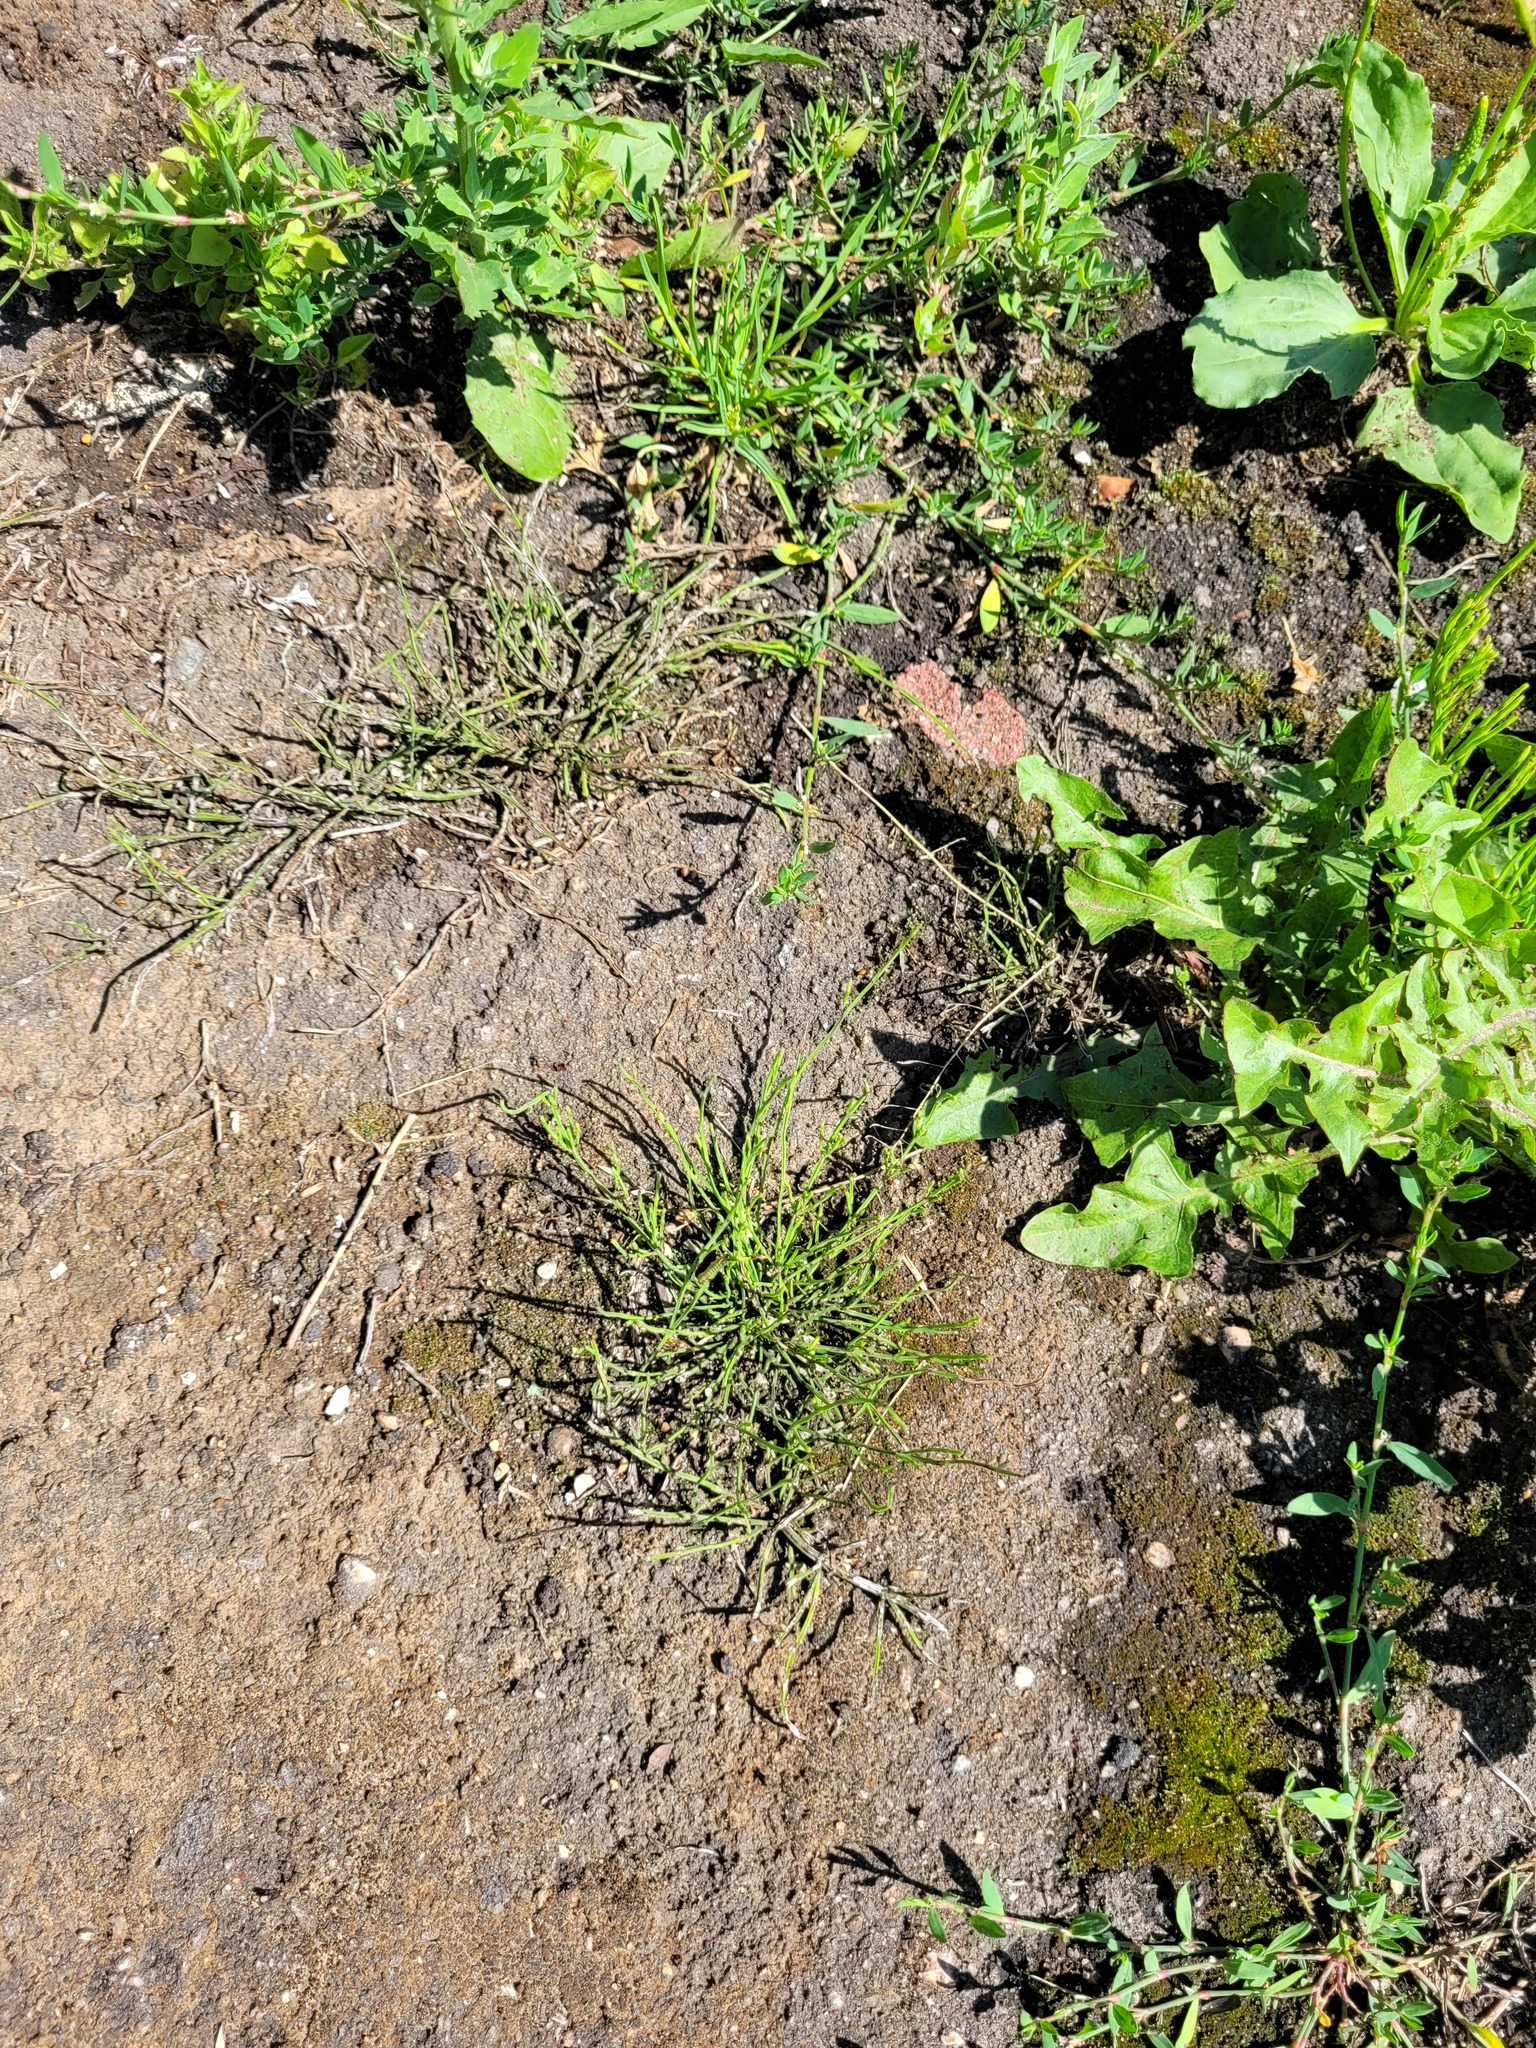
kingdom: Plantae
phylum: Tracheophyta
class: Polypodiopsida
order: Equisetales
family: Equisetaceae
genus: Equisetum
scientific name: Equisetum arvense
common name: Field horsetail
